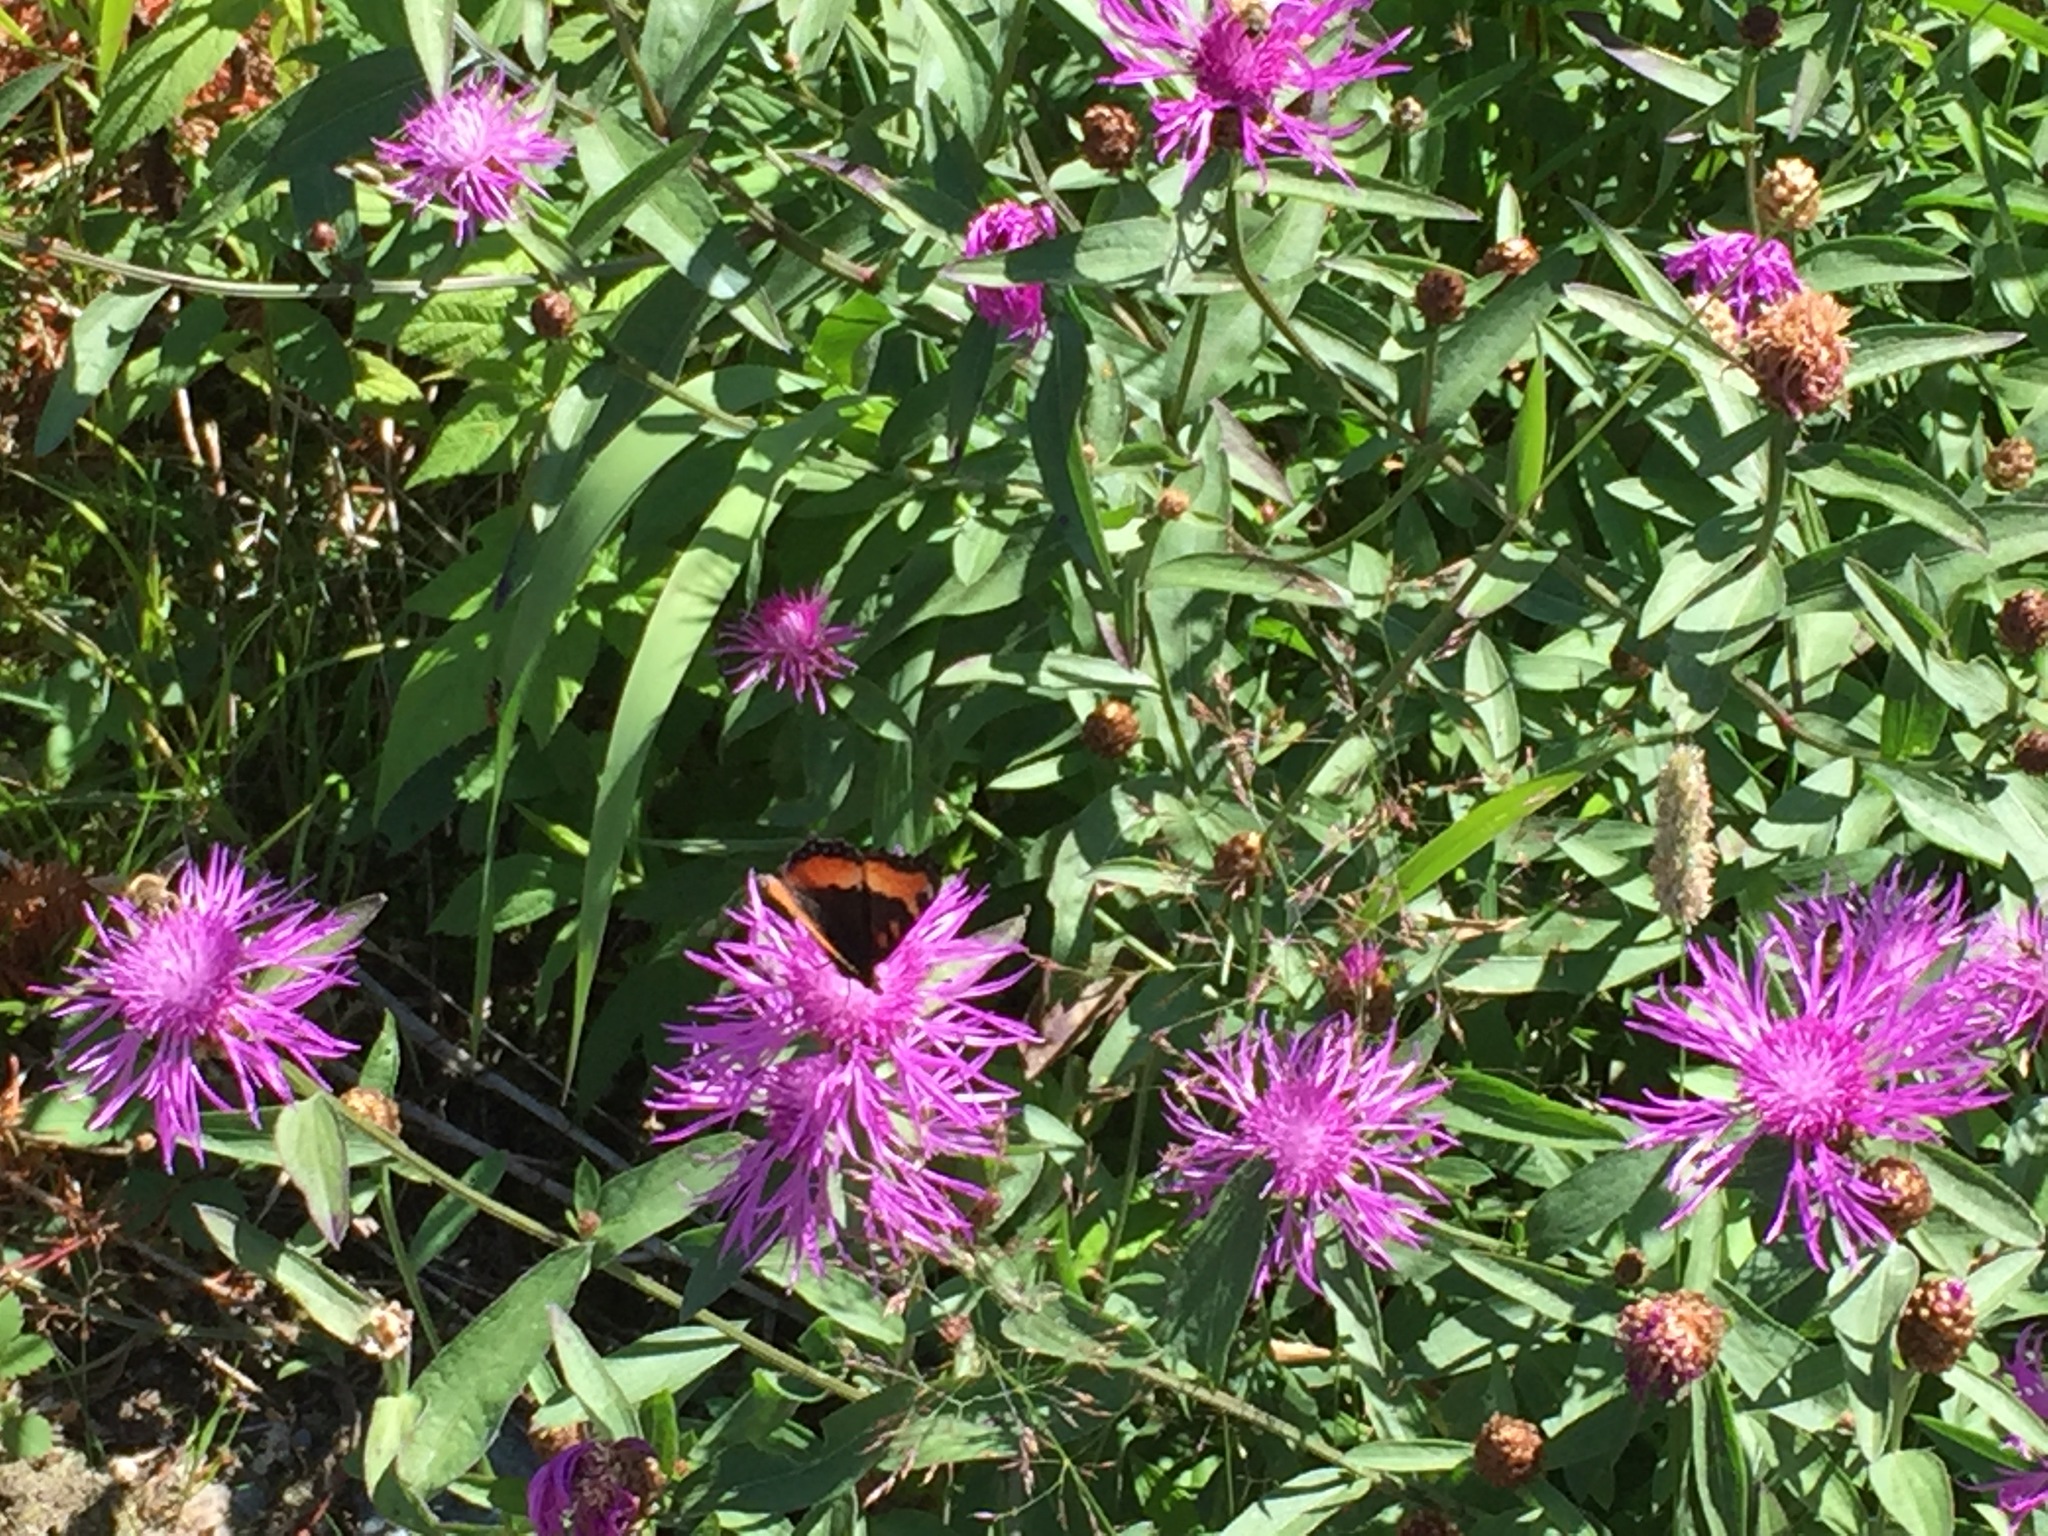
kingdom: Animalia
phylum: Arthropoda
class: Insecta
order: Lepidoptera
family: Nymphalidae
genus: Aglais
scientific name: Aglais milberti
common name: Milbert's tortoiseshell
